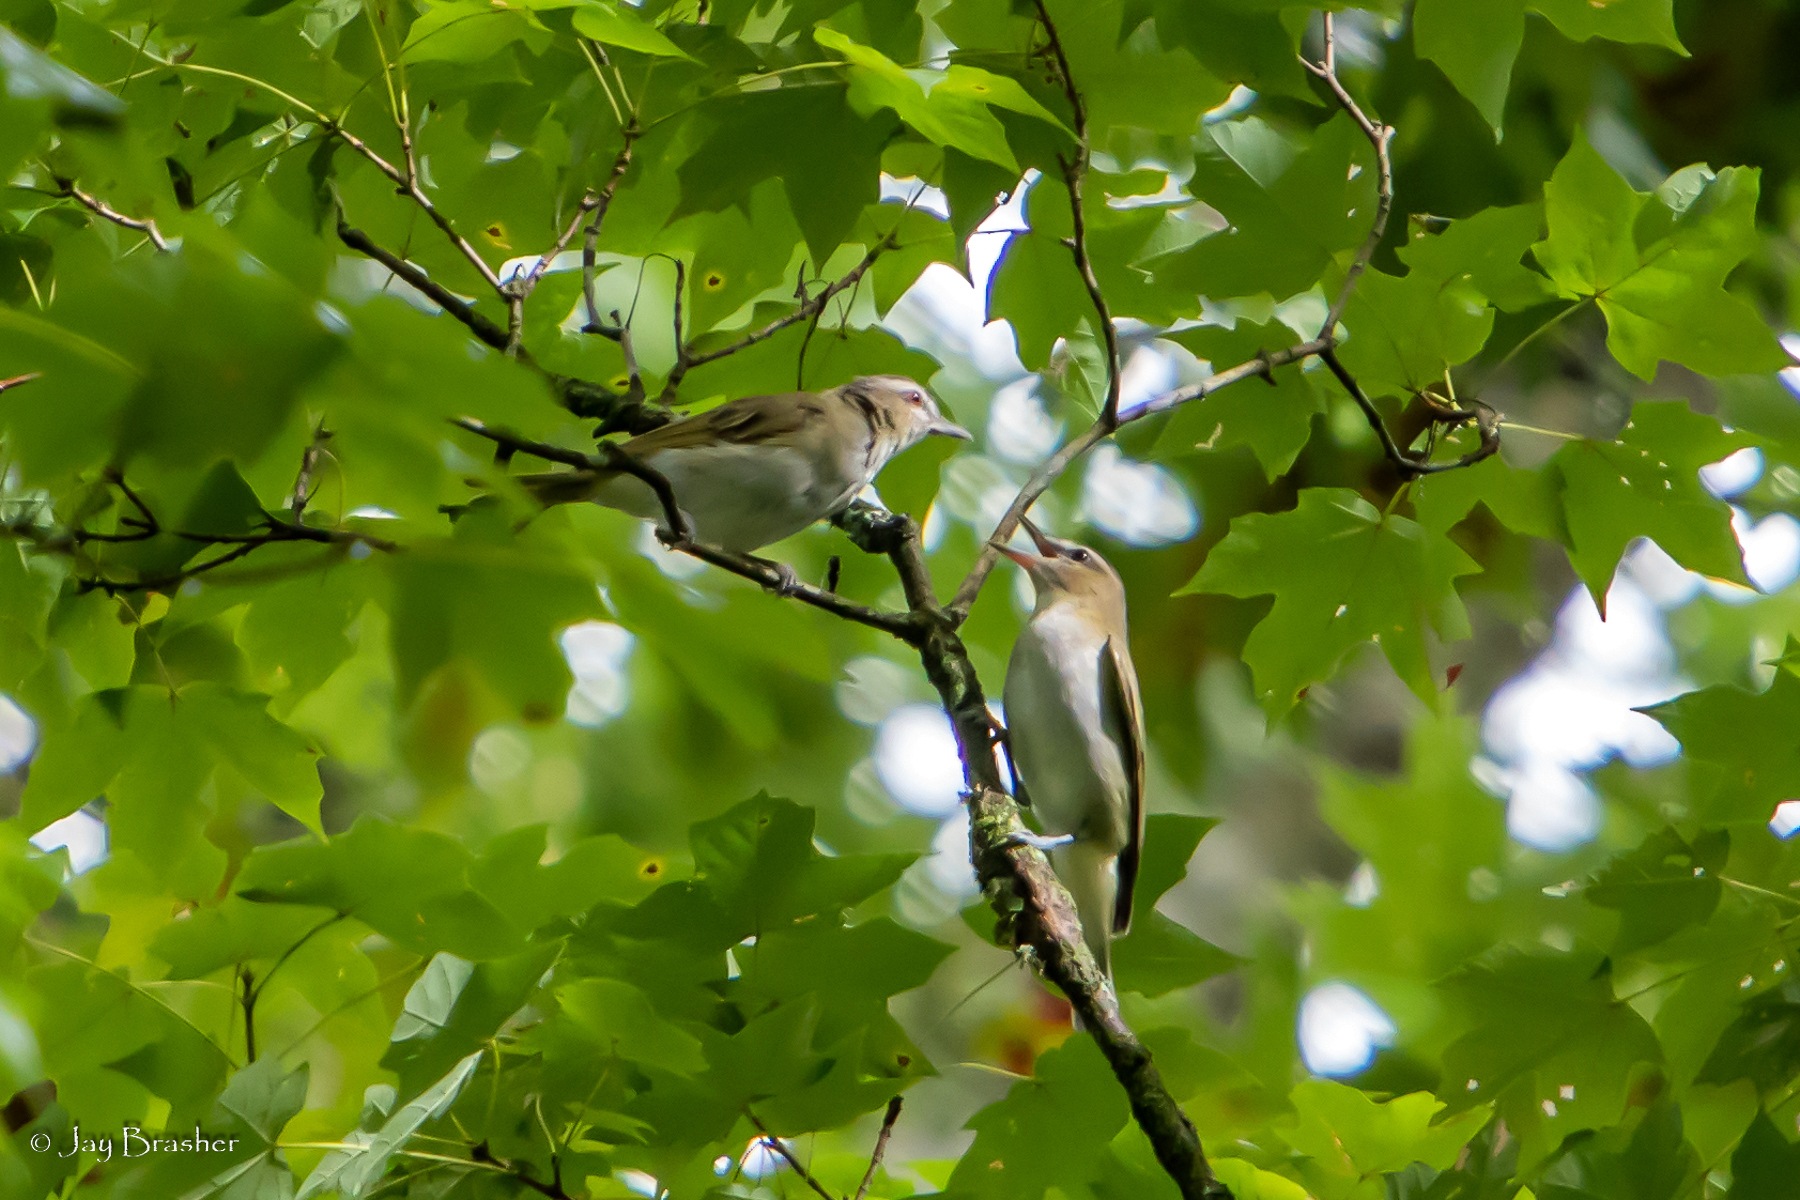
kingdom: Animalia
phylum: Chordata
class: Aves
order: Passeriformes
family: Vireonidae
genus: Vireo
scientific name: Vireo olivaceus
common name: Red-eyed vireo
